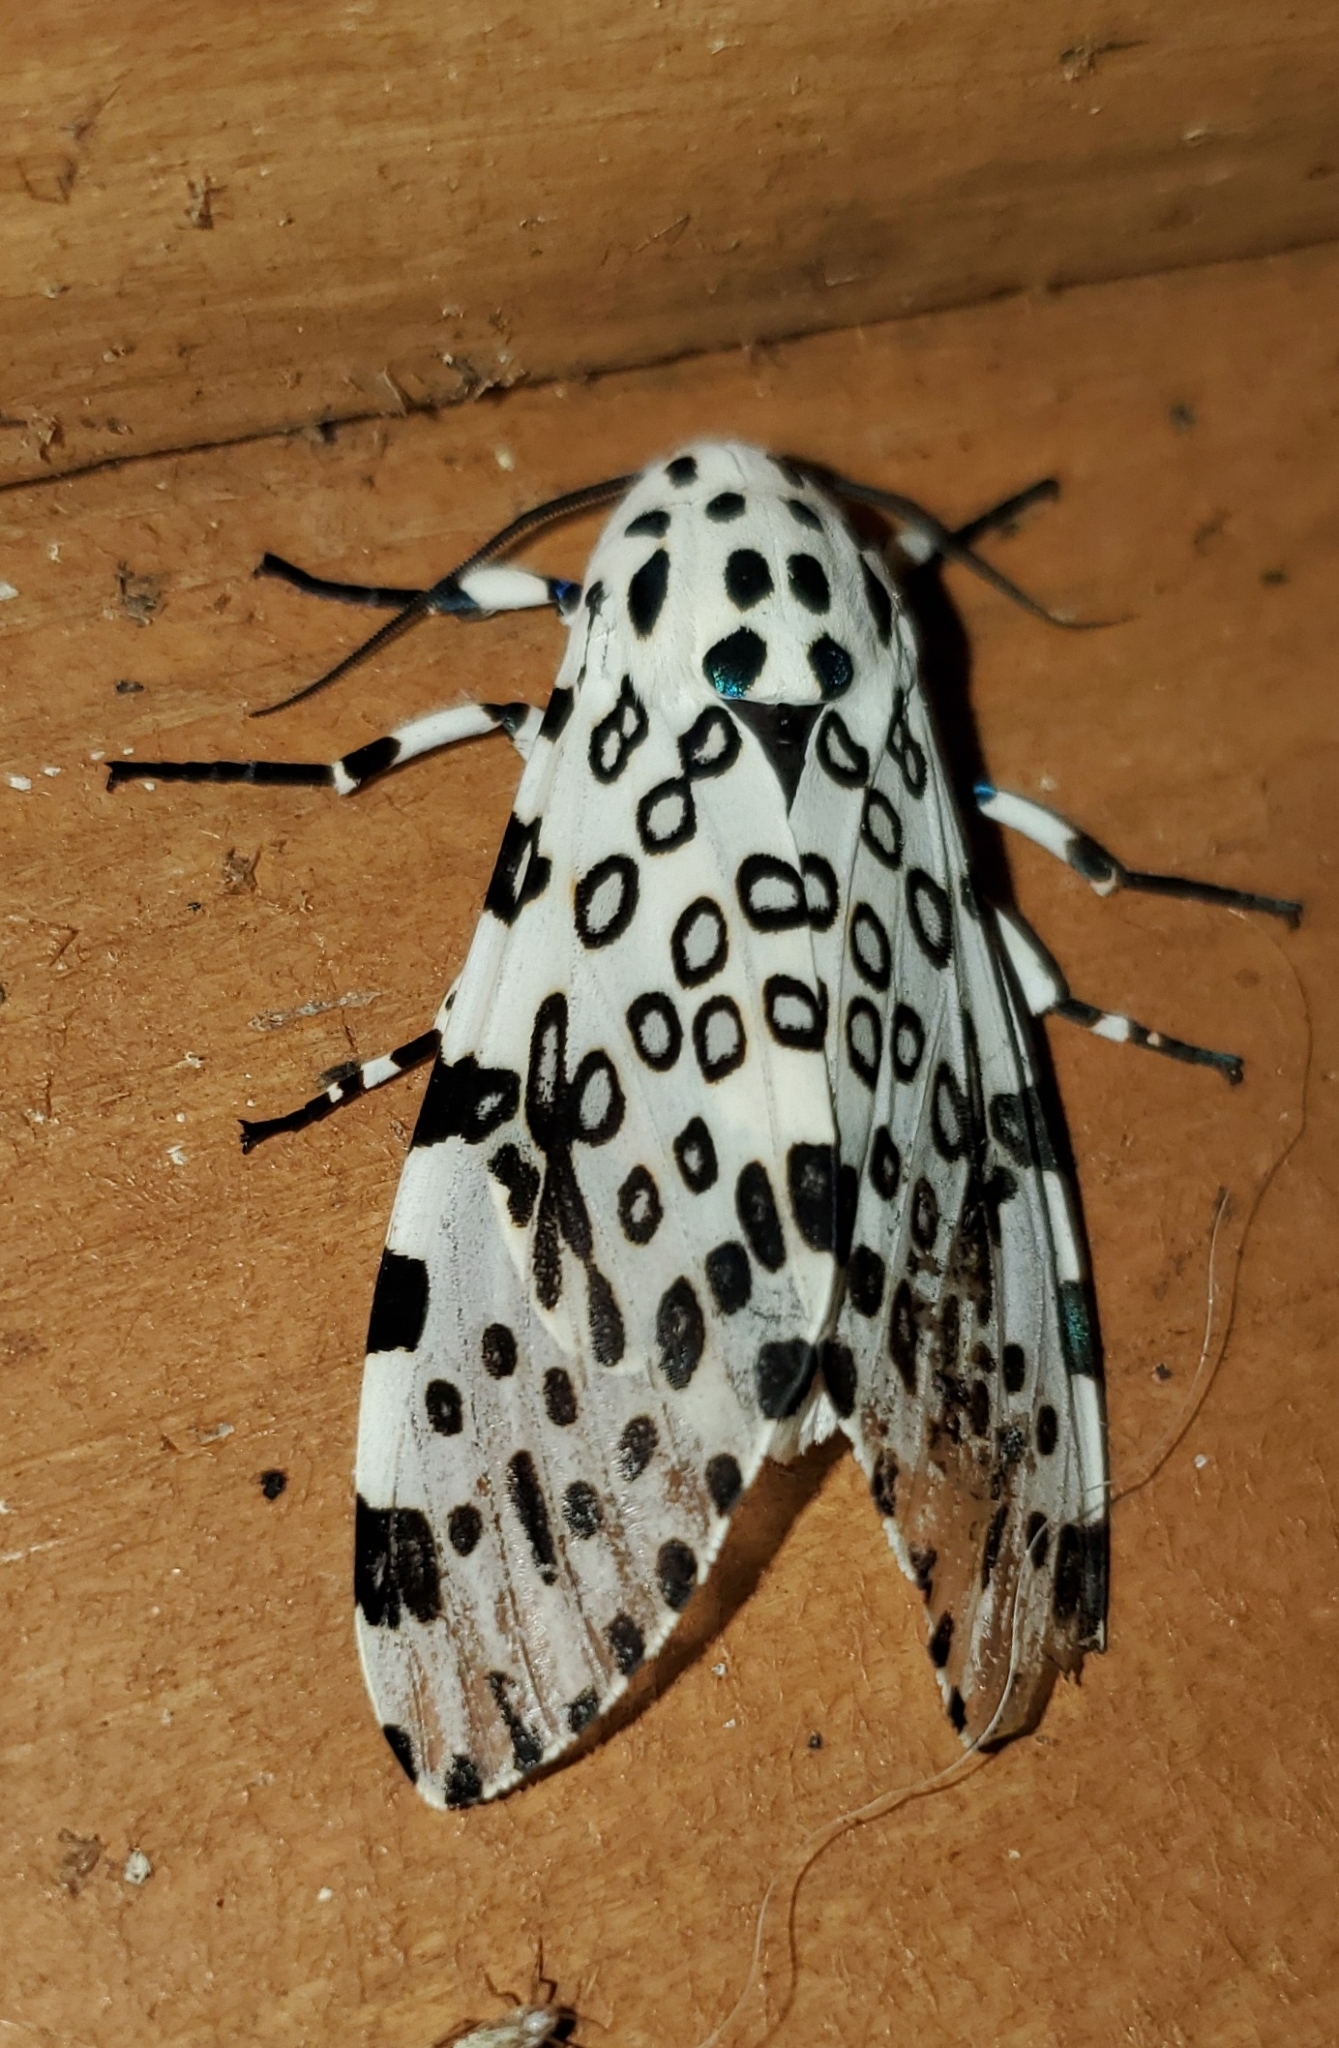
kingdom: Animalia
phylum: Arthropoda
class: Insecta
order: Lepidoptera
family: Erebidae
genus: Hypercompe
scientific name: Hypercompe scribonia
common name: Giant leopard moth
